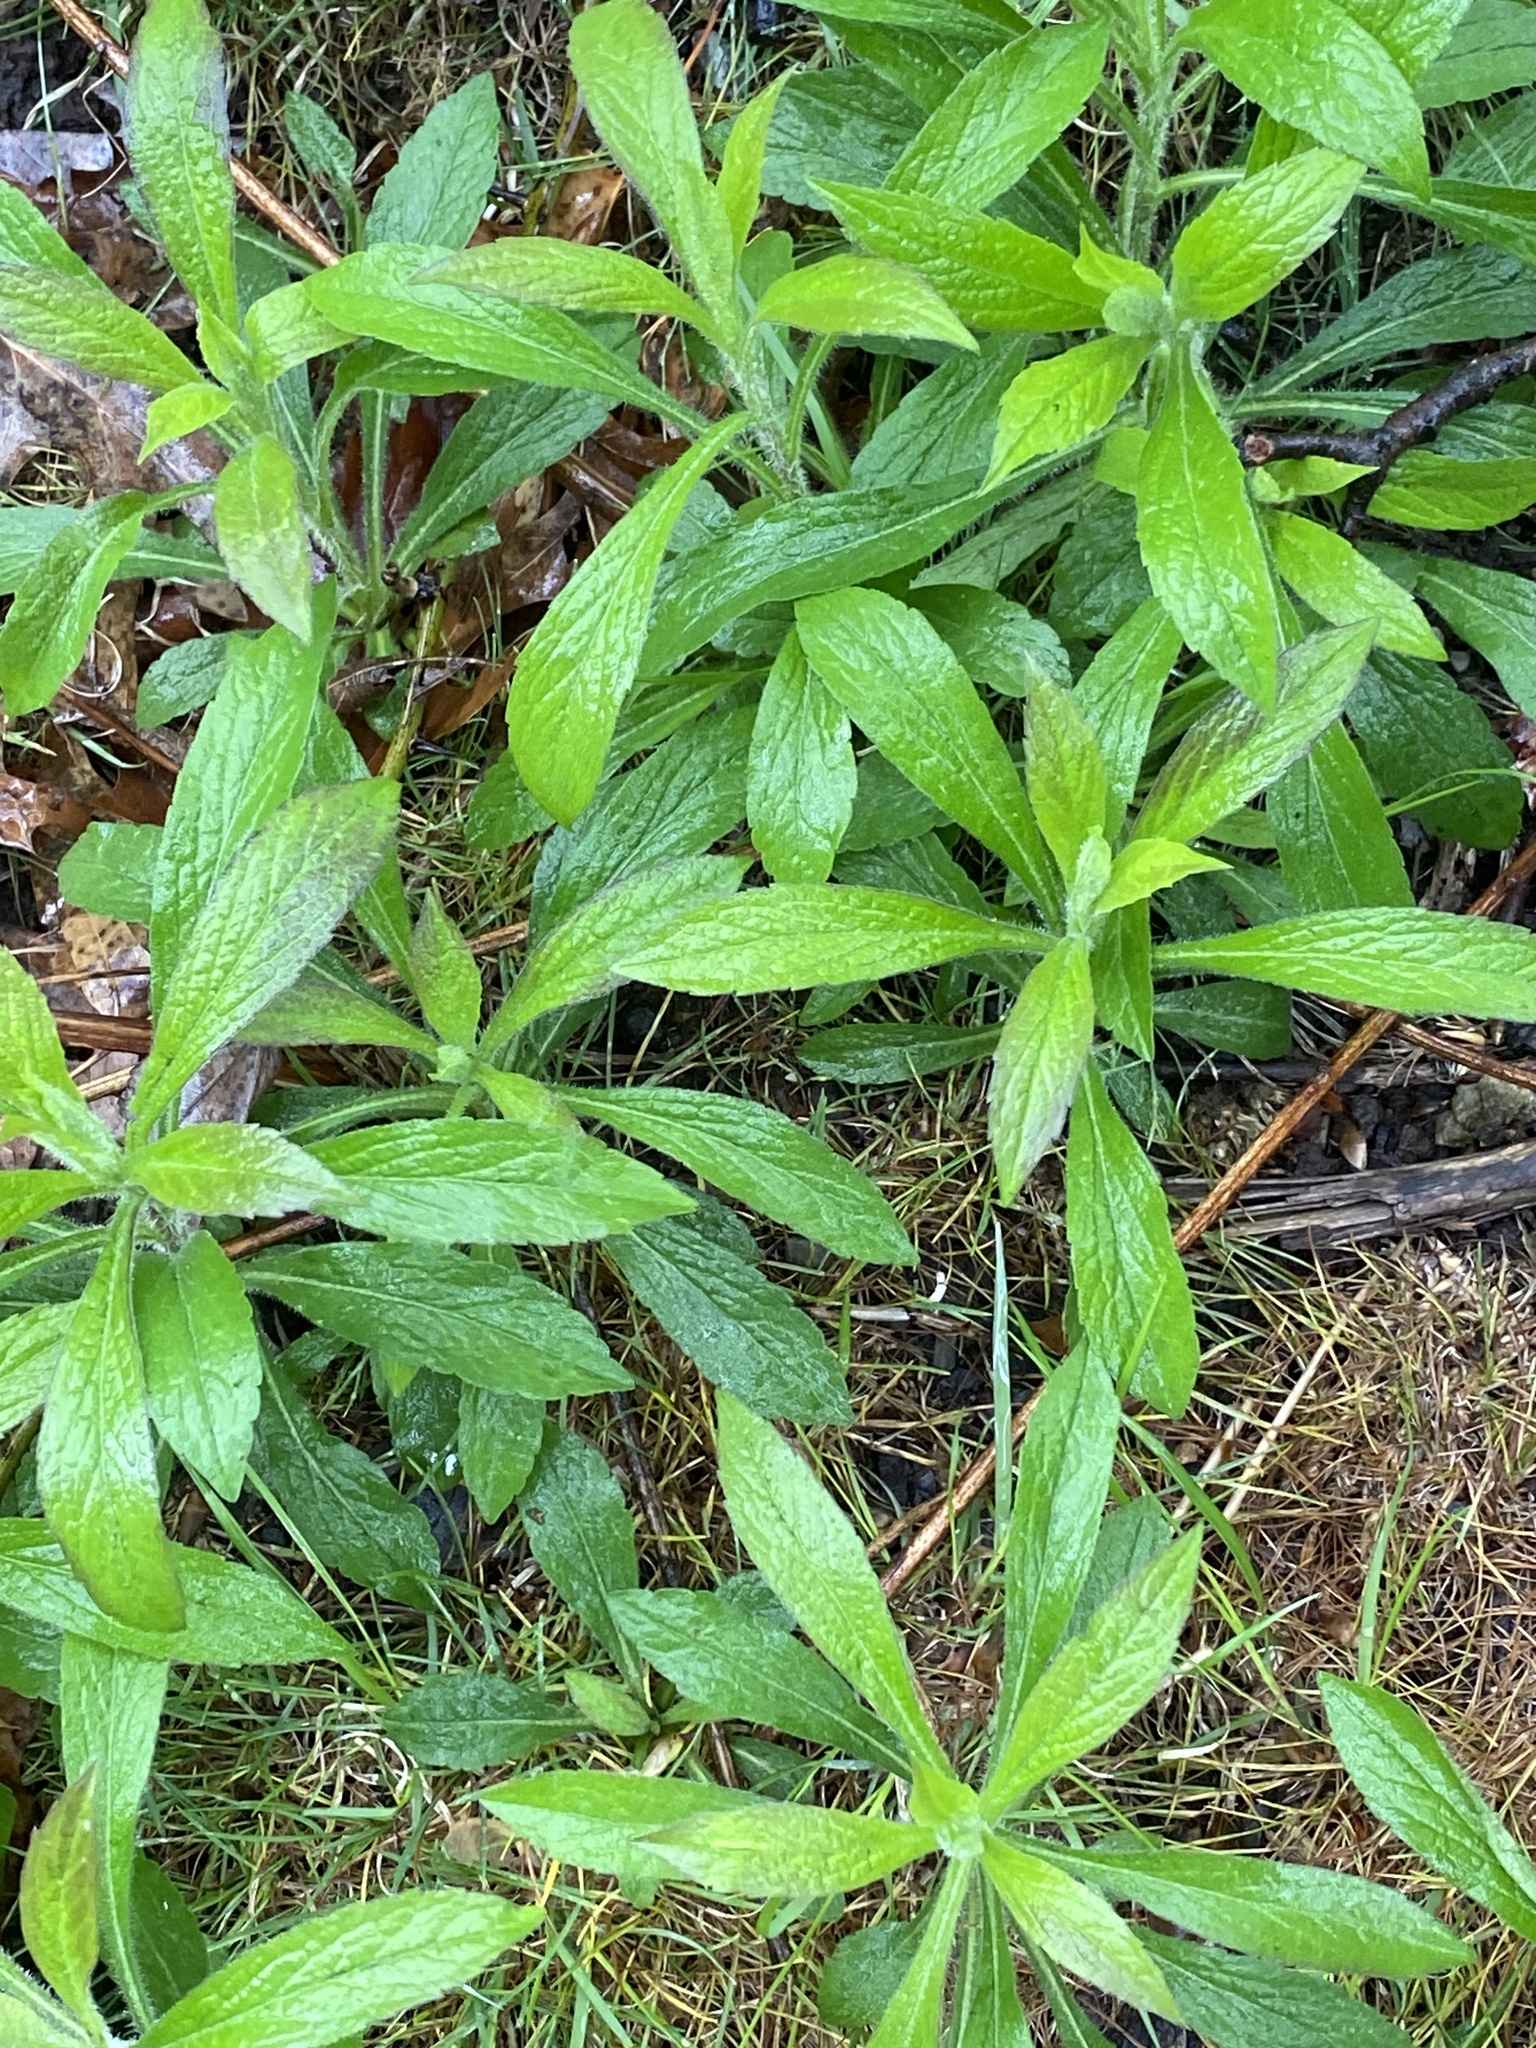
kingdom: Plantae
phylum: Tracheophyta
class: Magnoliopsida
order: Asterales
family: Asteraceae
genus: Solidago
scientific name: Solidago rugosa
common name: Rough-stemmed goldenrod
